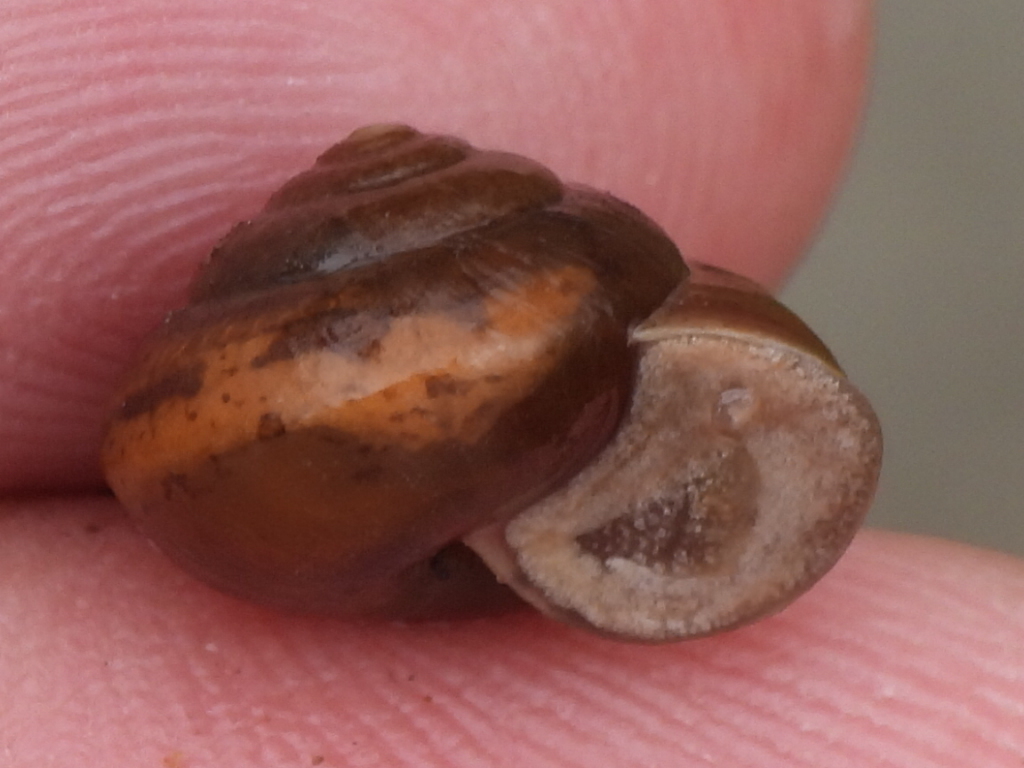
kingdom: Animalia
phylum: Mollusca
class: Gastropoda
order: Stylommatophora
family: Camaenidae
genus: Bradybaena
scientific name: Bradybaena similaris
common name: Asian trampsnail
